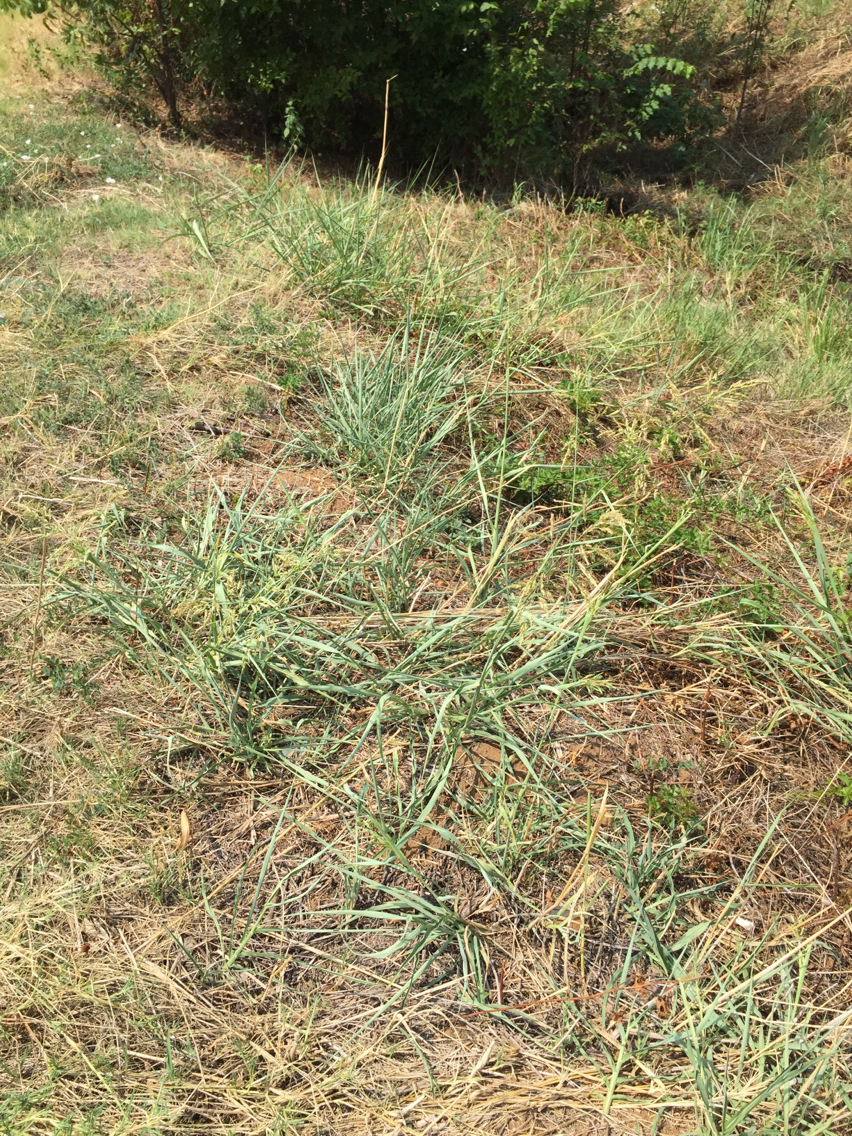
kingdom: Plantae
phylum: Tracheophyta
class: Liliopsida
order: Poales
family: Poaceae
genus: Sorghum
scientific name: Sorghum halepense
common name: Johnson-grass
